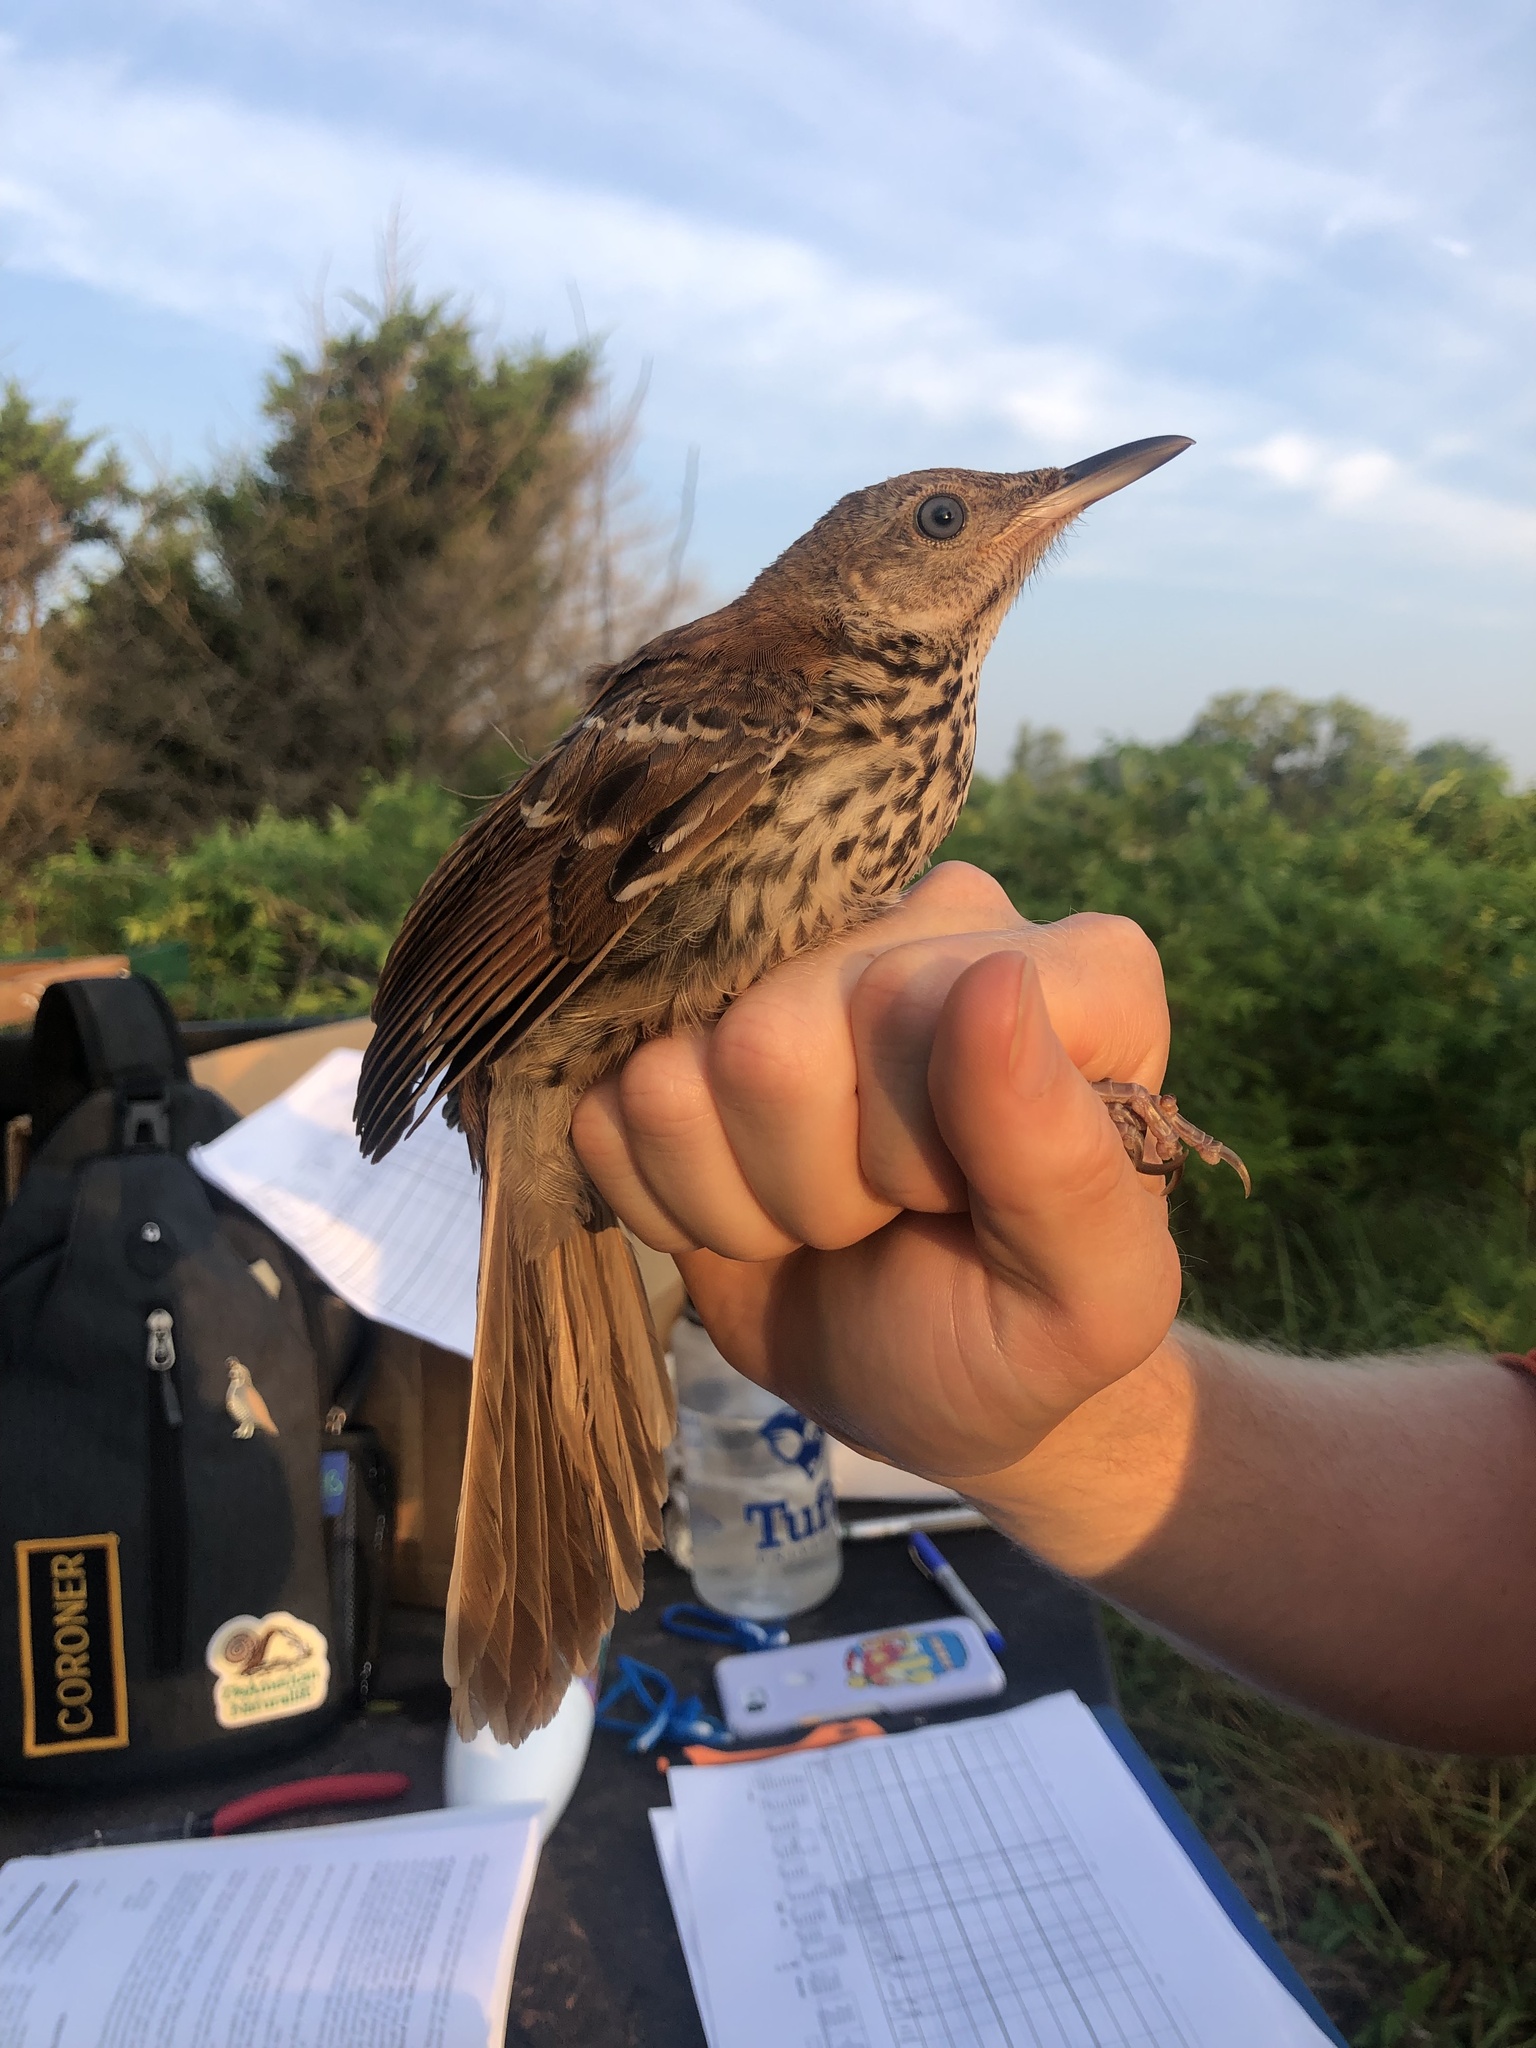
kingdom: Animalia
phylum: Chordata
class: Aves
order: Passeriformes
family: Mimidae
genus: Toxostoma
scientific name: Toxostoma rufum
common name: Brown thrasher
